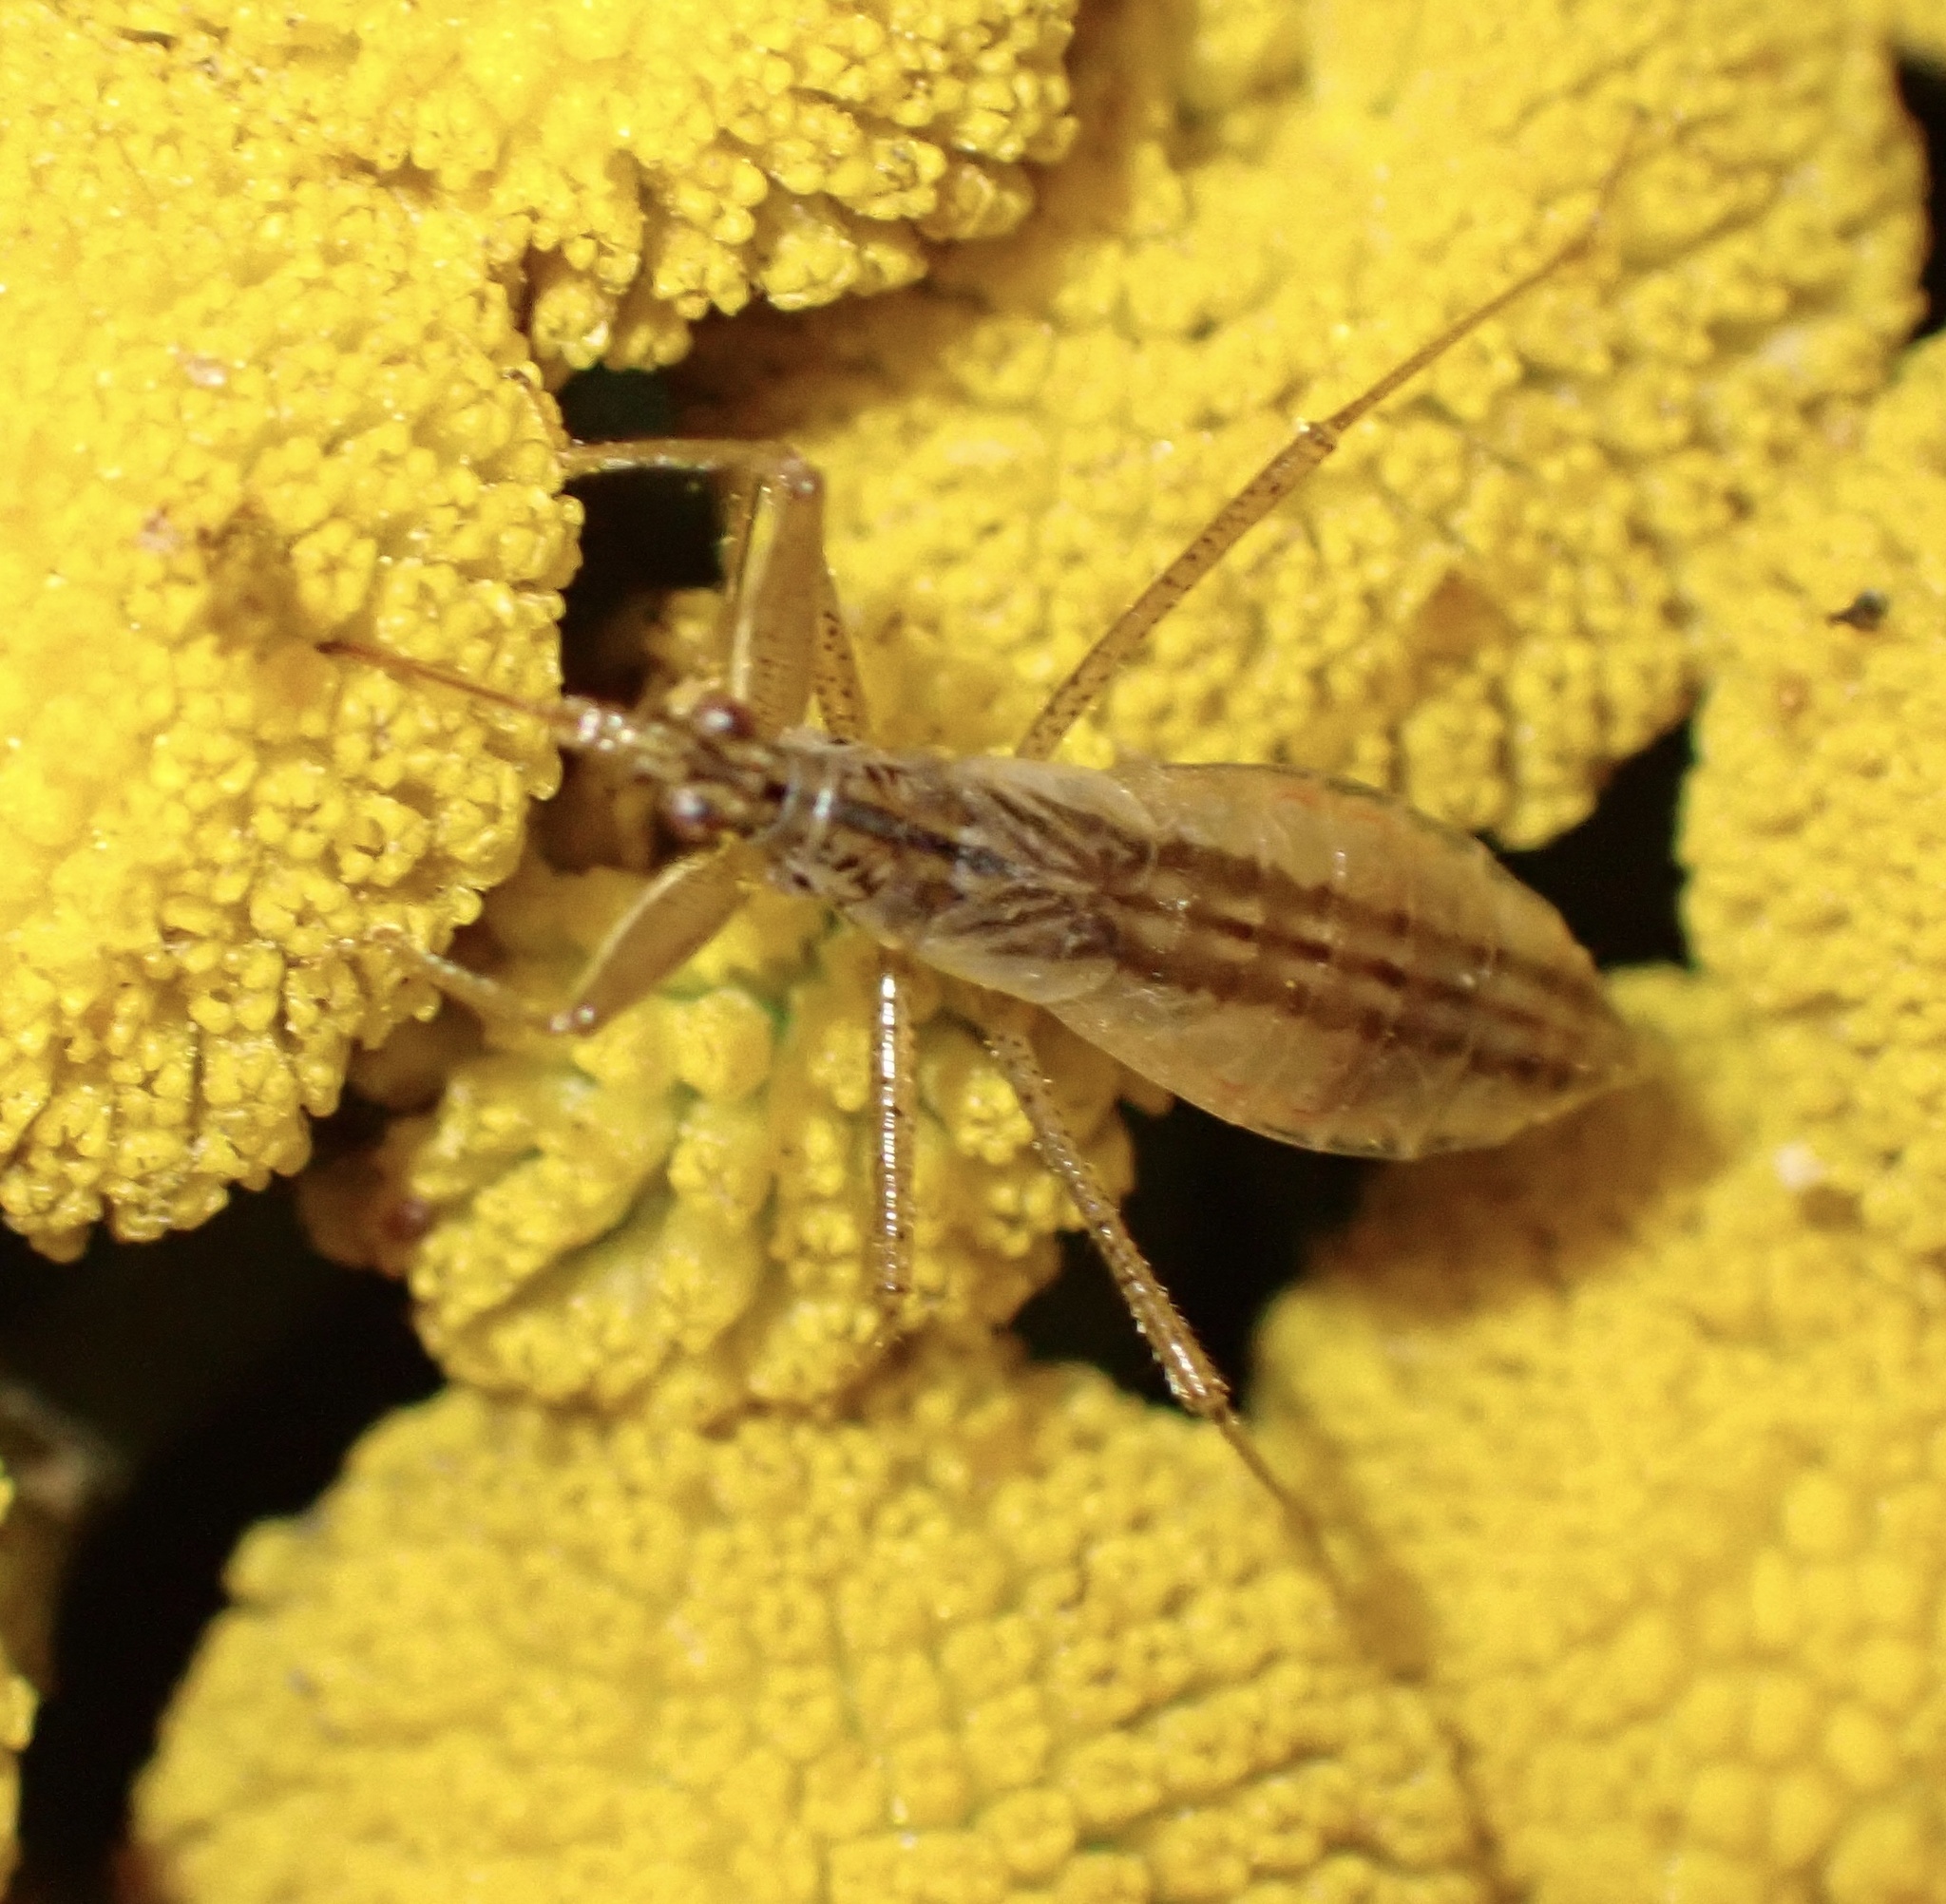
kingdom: Animalia
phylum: Arthropoda
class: Insecta
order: Hemiptera
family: Nabidae
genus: Nabis
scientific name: Nabis limbatus
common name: Marsh damselbug
